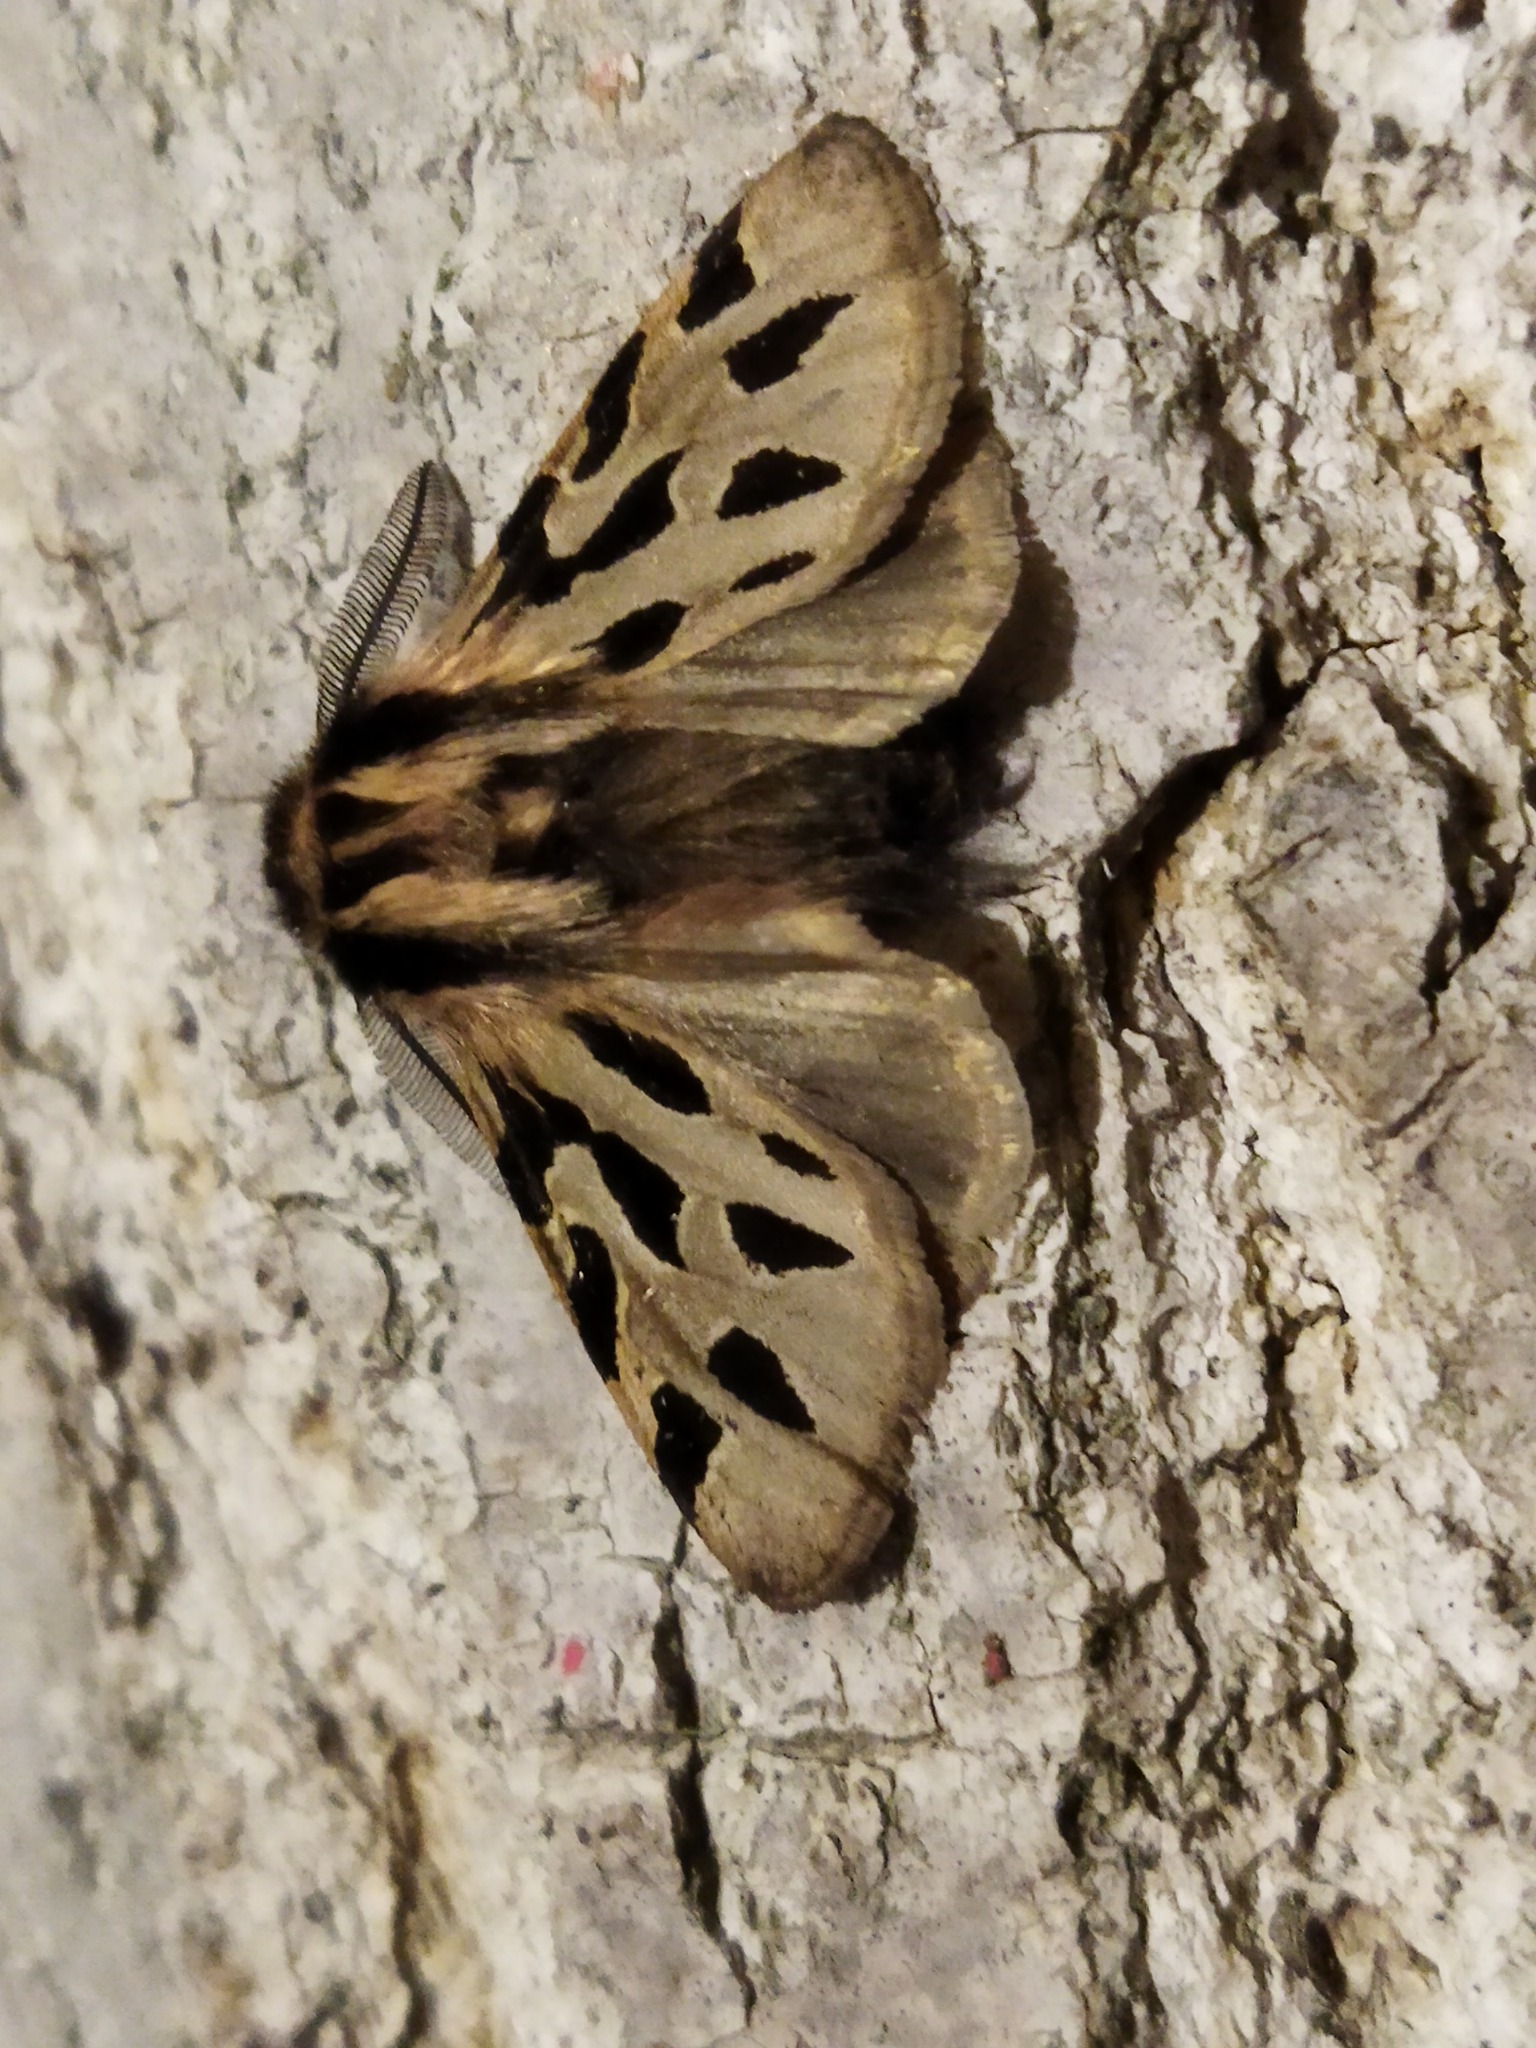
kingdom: Animalia
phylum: Arthropoda
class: Insecta
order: Lepidoptera
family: Erebidae
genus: Ocnogyna
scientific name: Ocnogyna parasita
